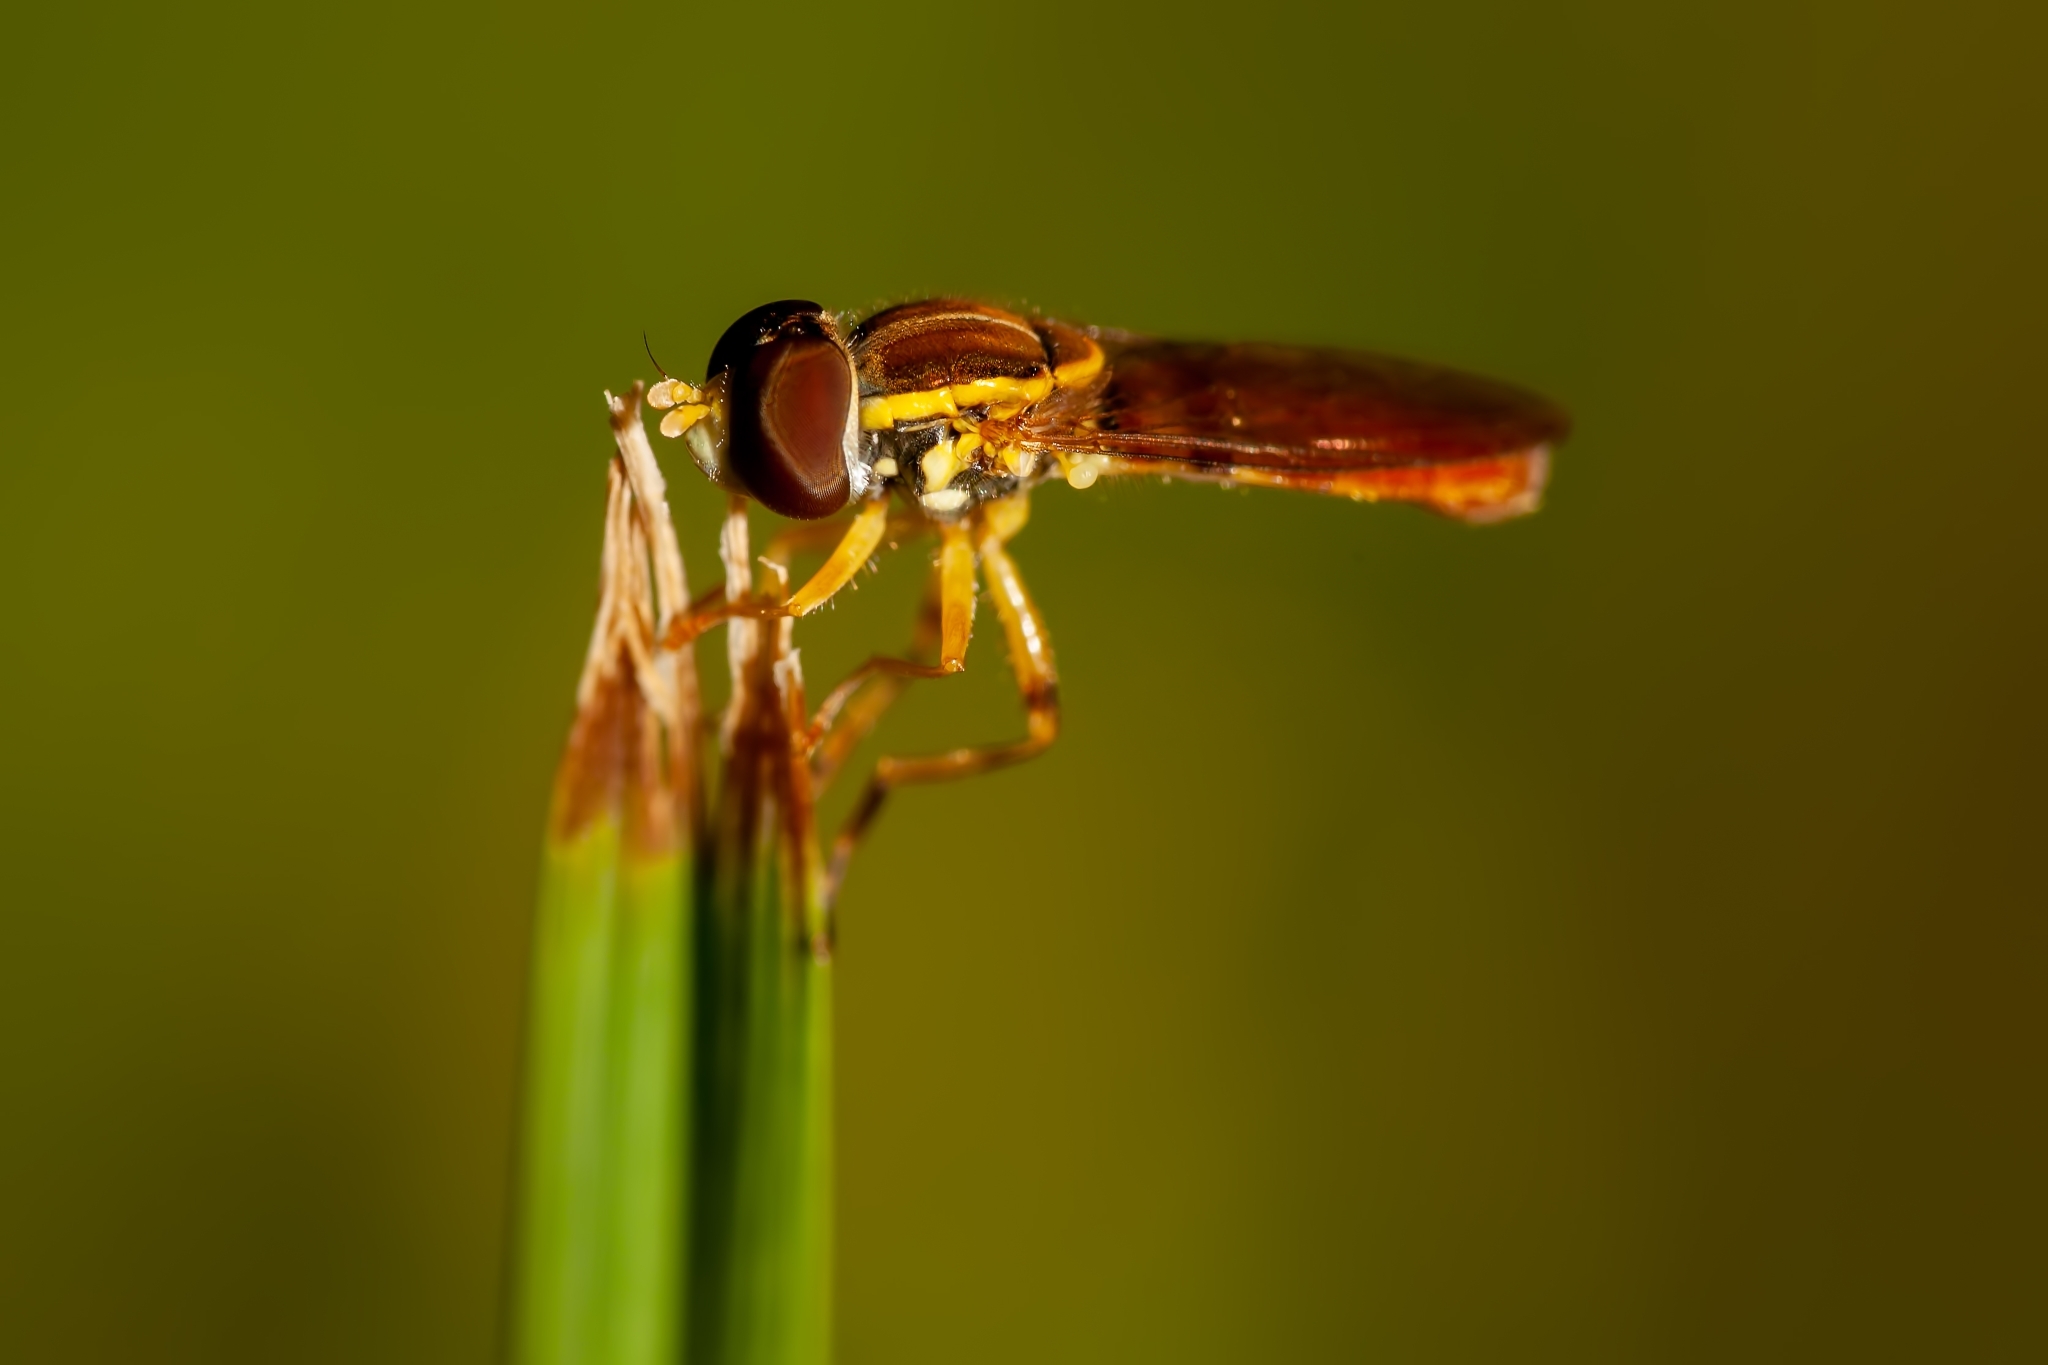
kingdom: Animalia
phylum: Arthropoda
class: Insecta
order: Diptera
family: Syrphidae
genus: Toxomerus
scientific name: Toxomerus floralis
